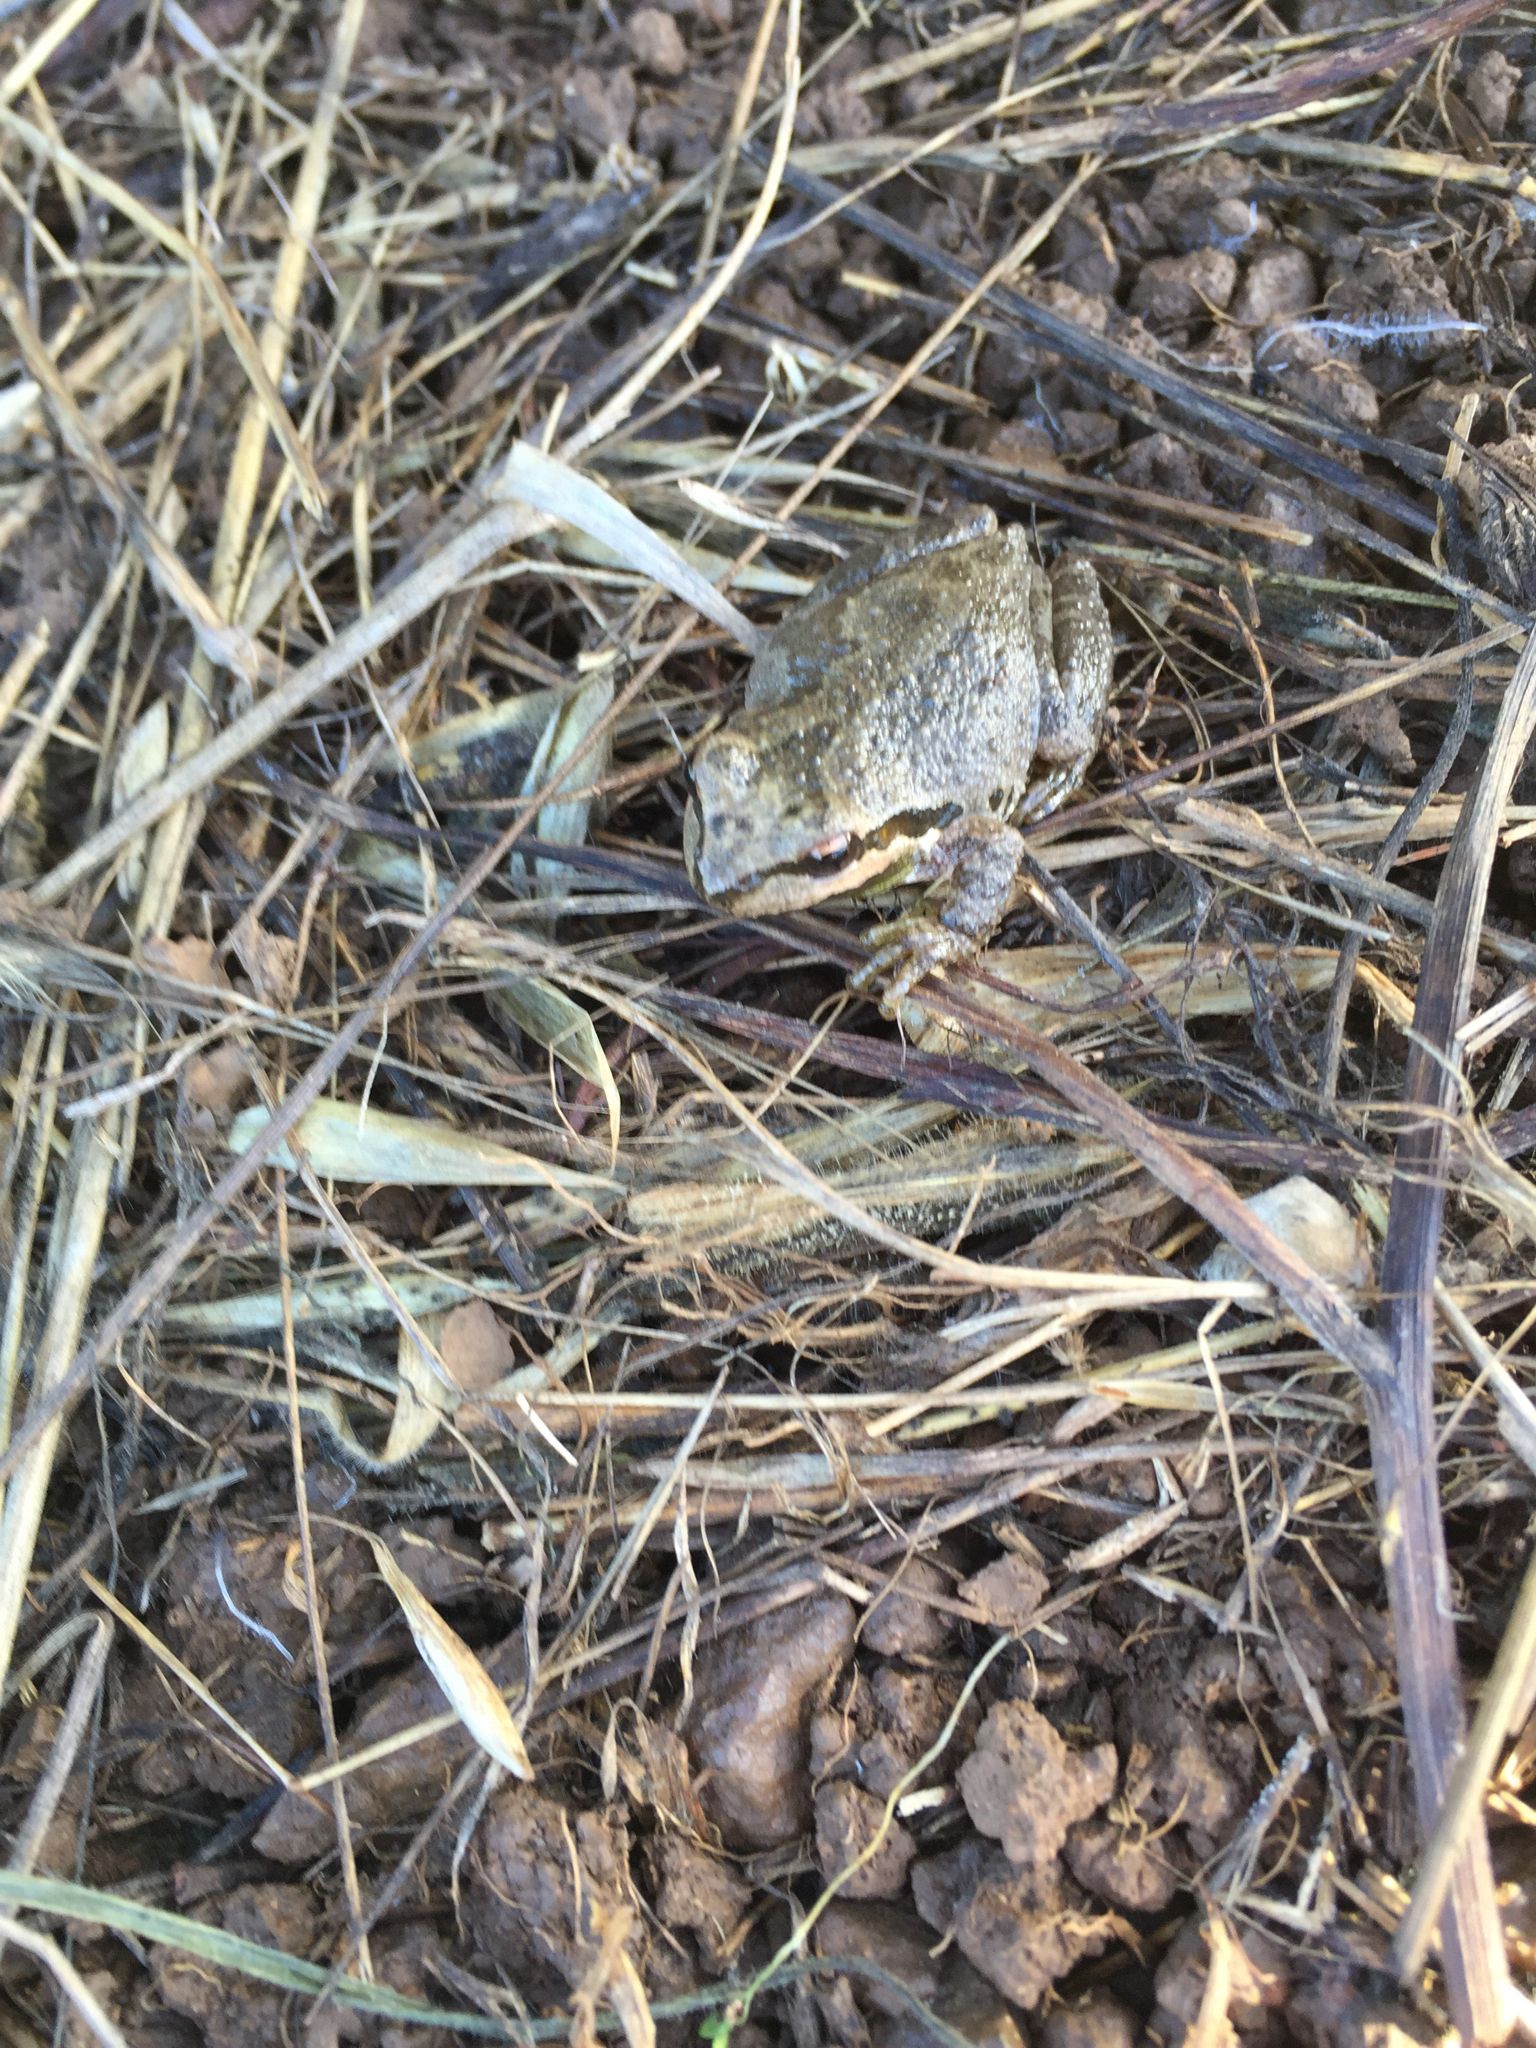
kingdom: Animalia
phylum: Chordata
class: Amphibia
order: Anura
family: Hylidae
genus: Pseudacris
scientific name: Pseudacris regilla
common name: Pacific chorus frog
